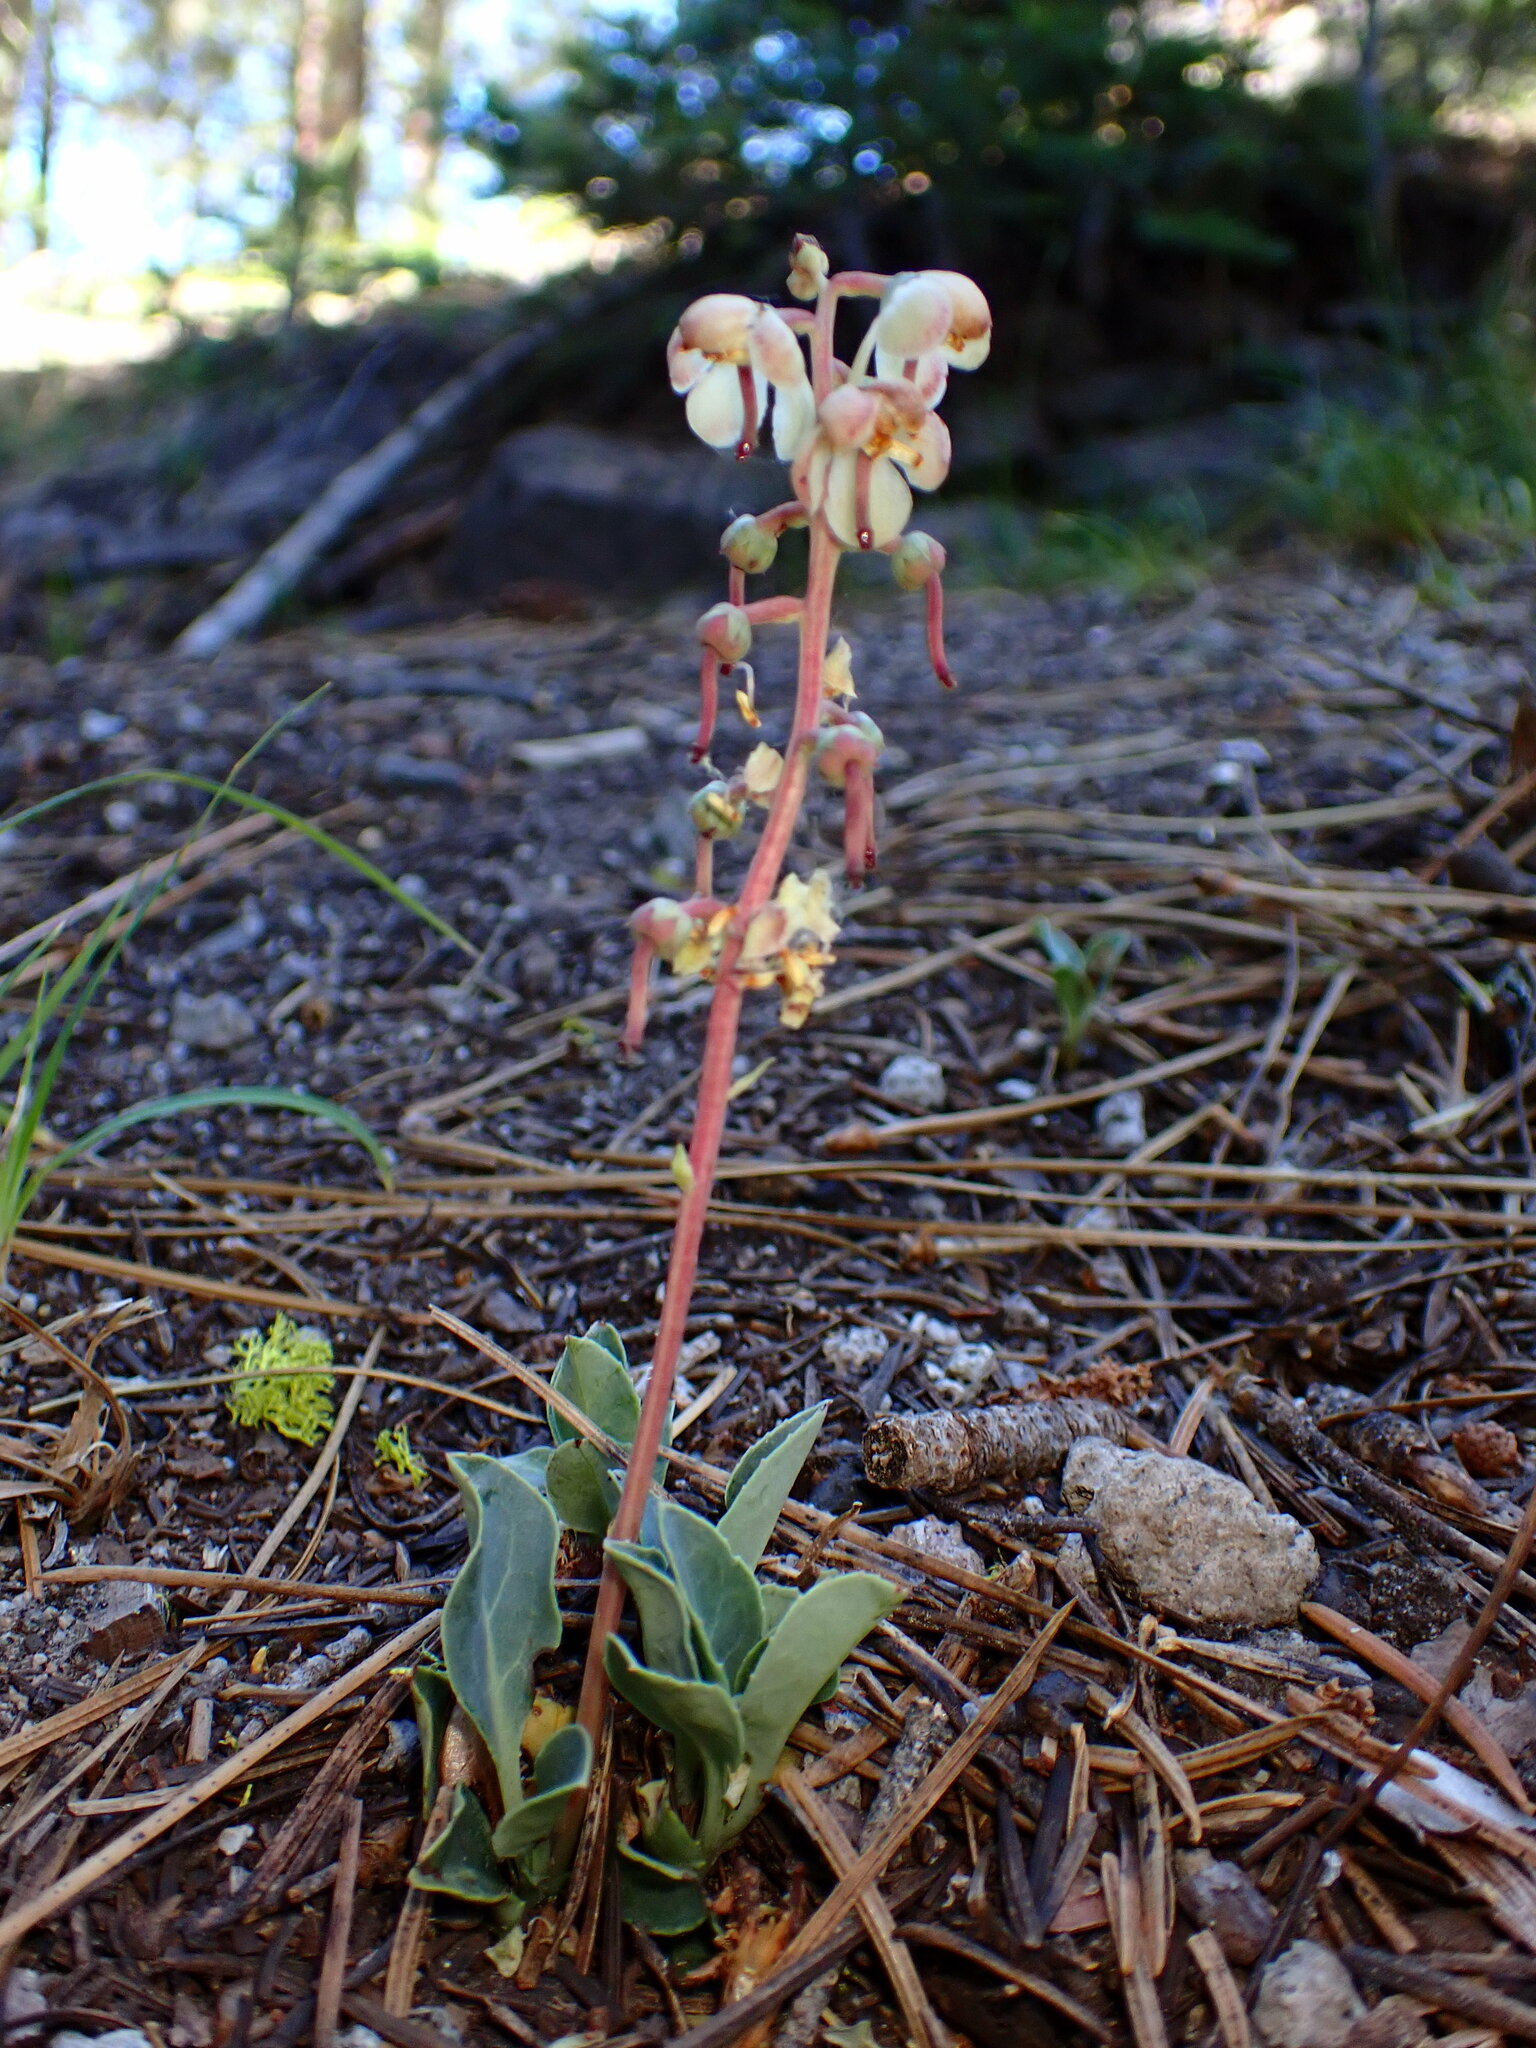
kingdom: Plantae
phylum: Tracheophyta
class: Magnoliopsida
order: Ericales
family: Ericaceae
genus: Pyrola
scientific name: Pyrola dentata
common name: Tooth-leaved wintergreen
